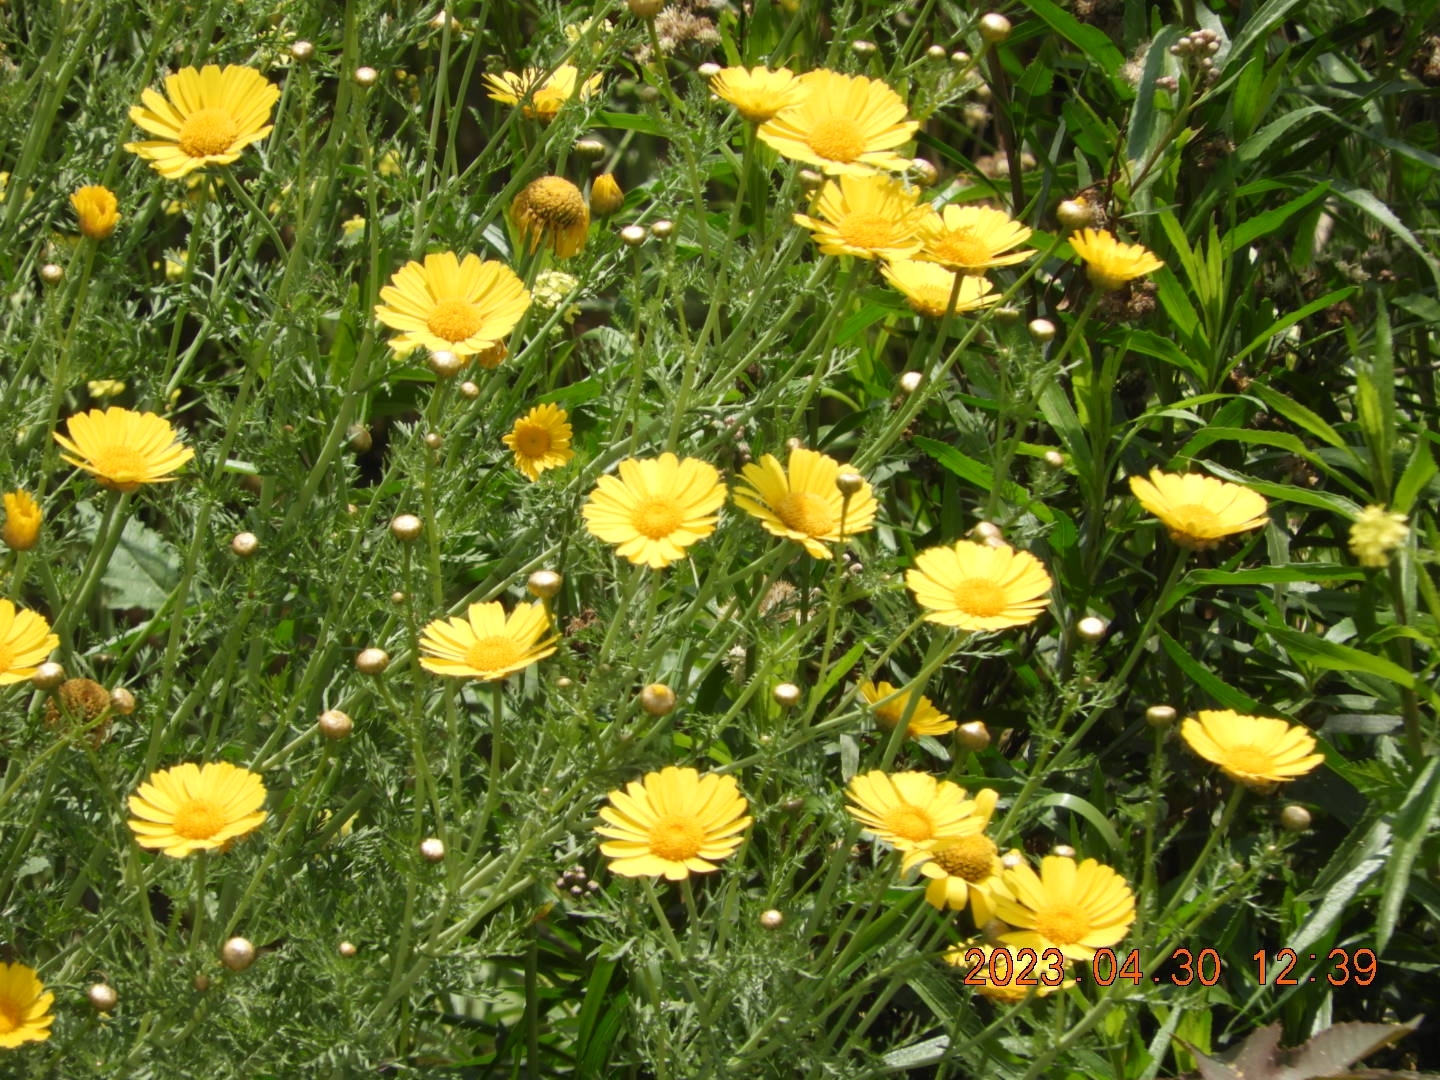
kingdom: Plantae
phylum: Tracheophyta
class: Magnoliopsida
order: Asterales
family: Asteraceae
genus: Glebionis
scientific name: Glebionis coronaria
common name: Crowndaisy
